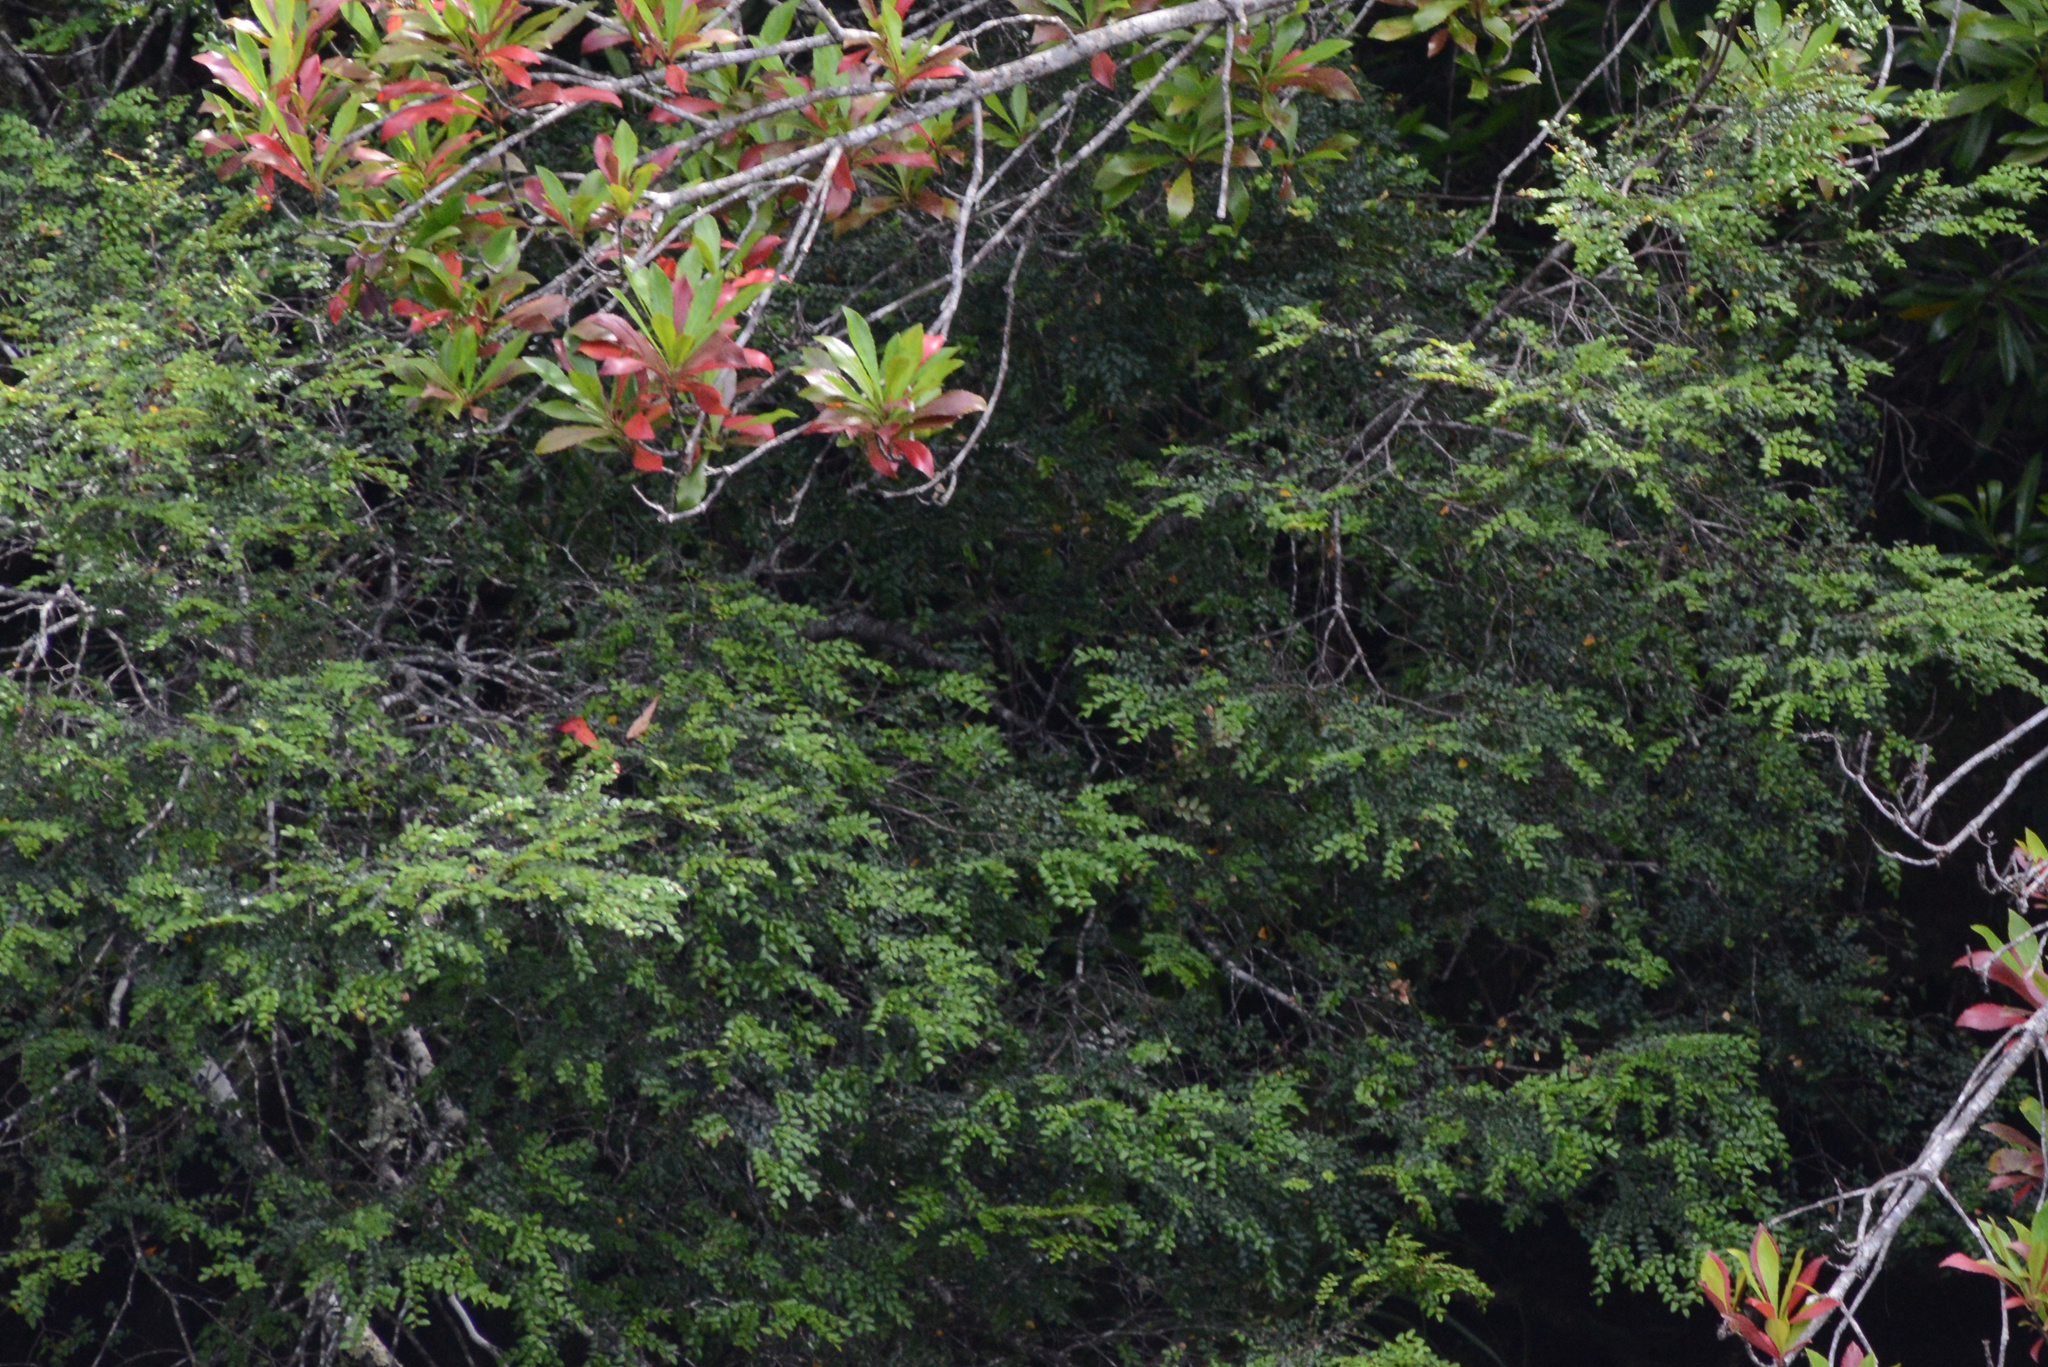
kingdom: Plantae
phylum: Tracheophyta
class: Magnoliopsida
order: Fagales
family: Nothofagaceae
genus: Nothofagus
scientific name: Nothofagus cunninghamii
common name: Myrtle beech
